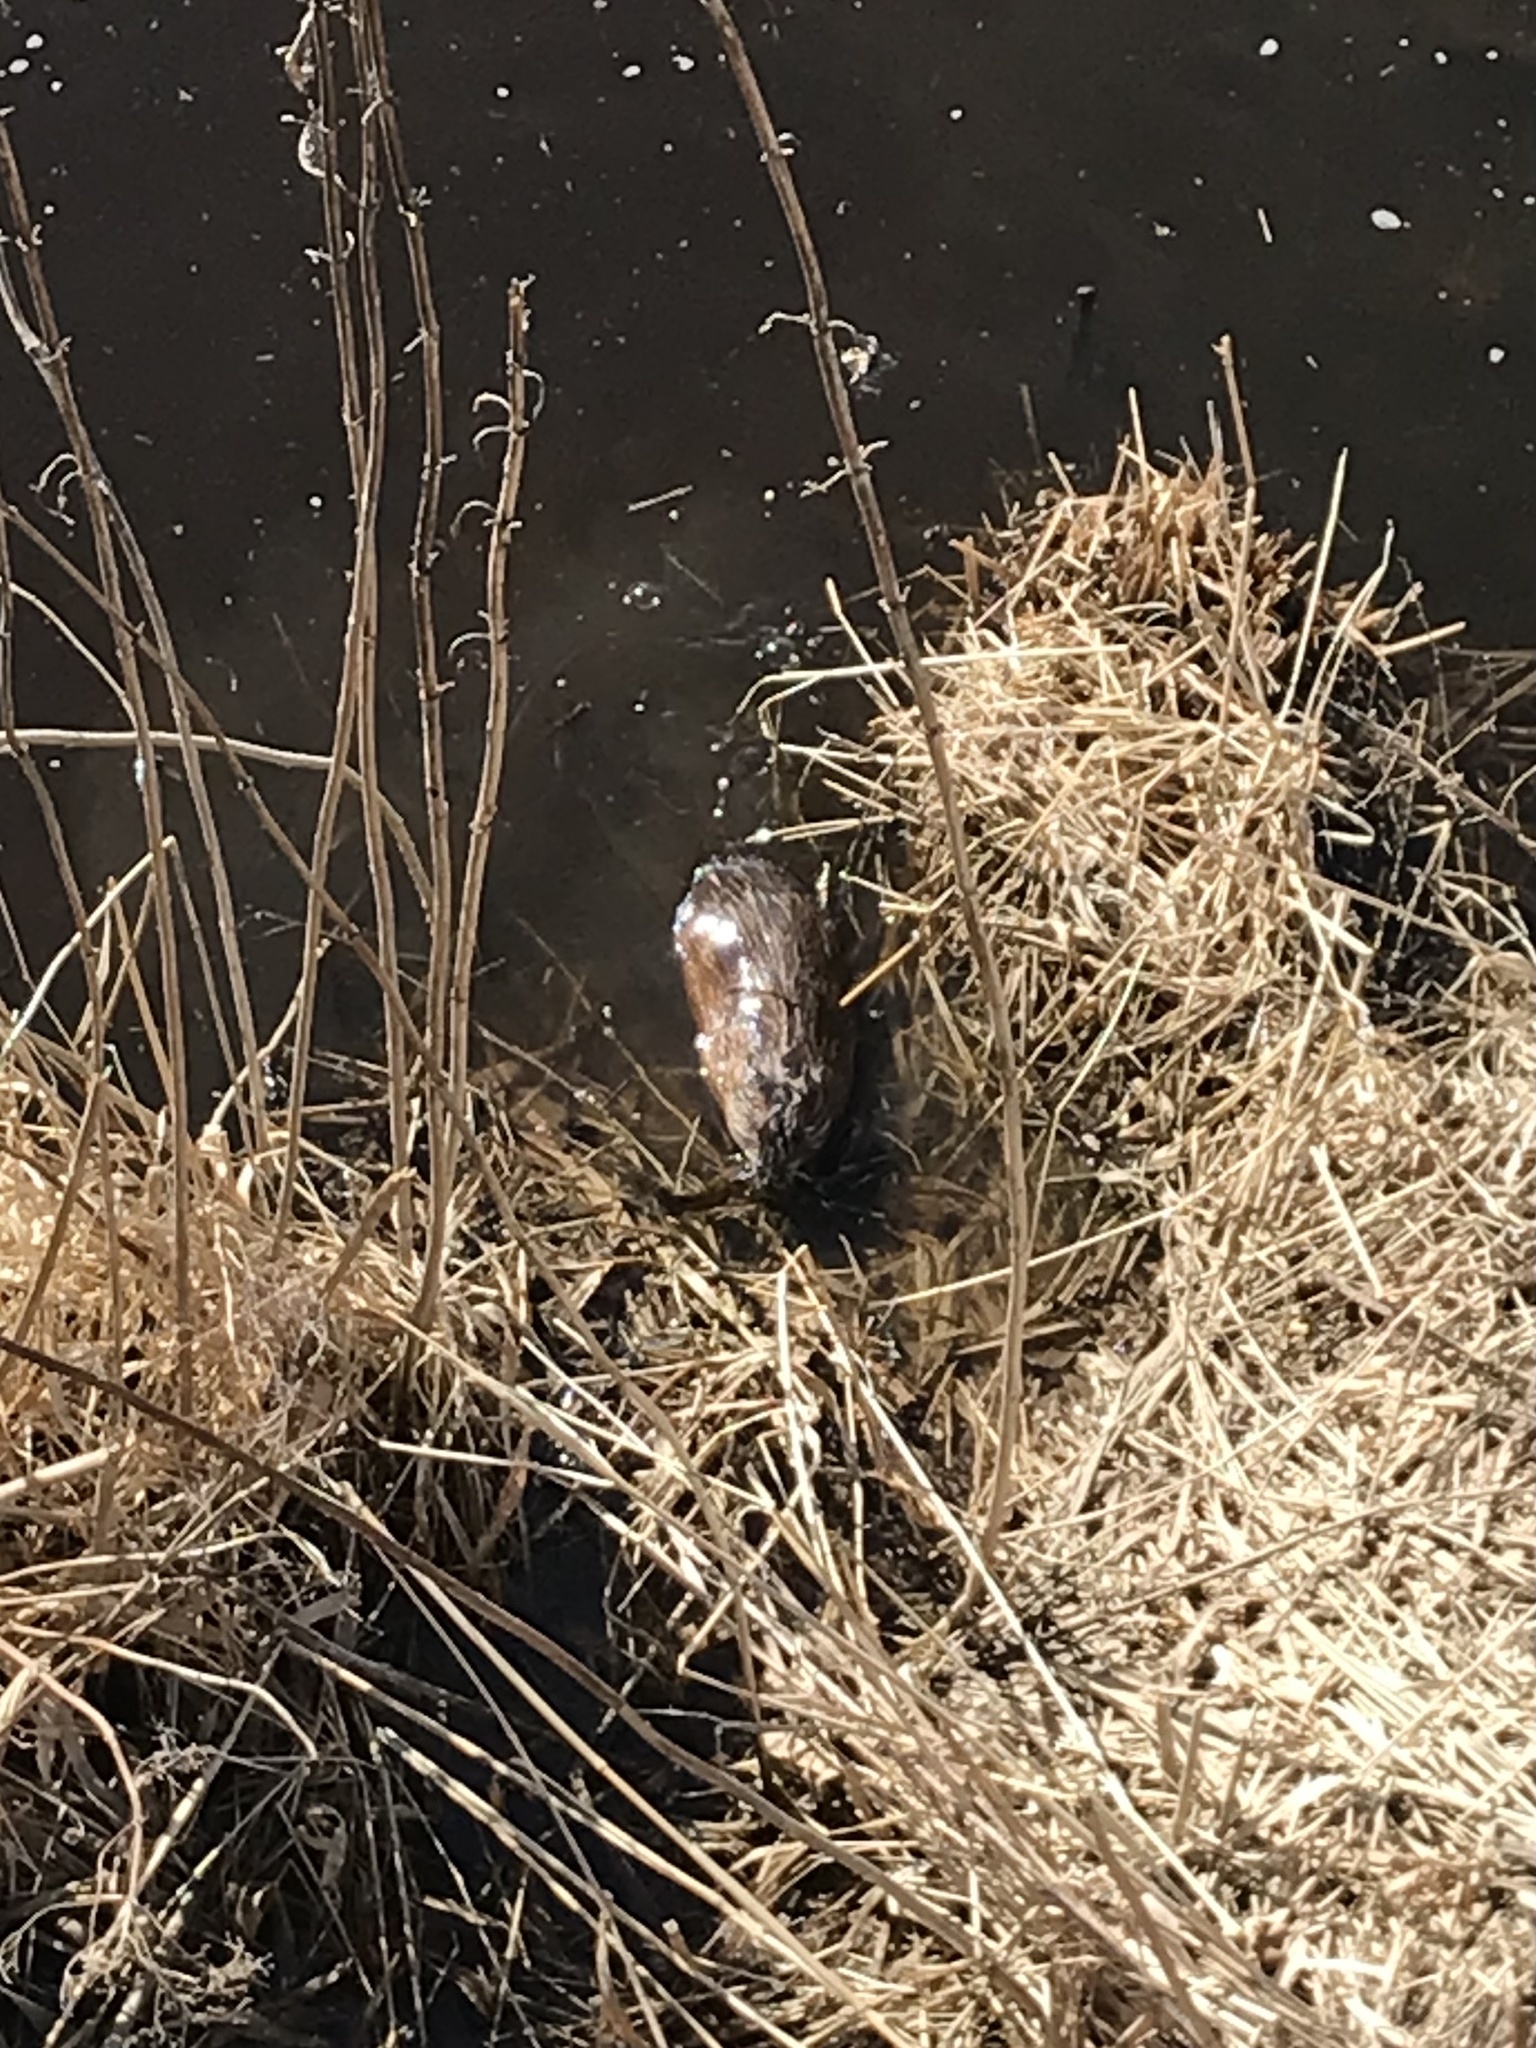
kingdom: Animalia
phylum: Chordata
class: Mammalia
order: Rodentia
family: Cricetidae
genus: Ondatra
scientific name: Ondatra zibethicus
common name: Muskrat
